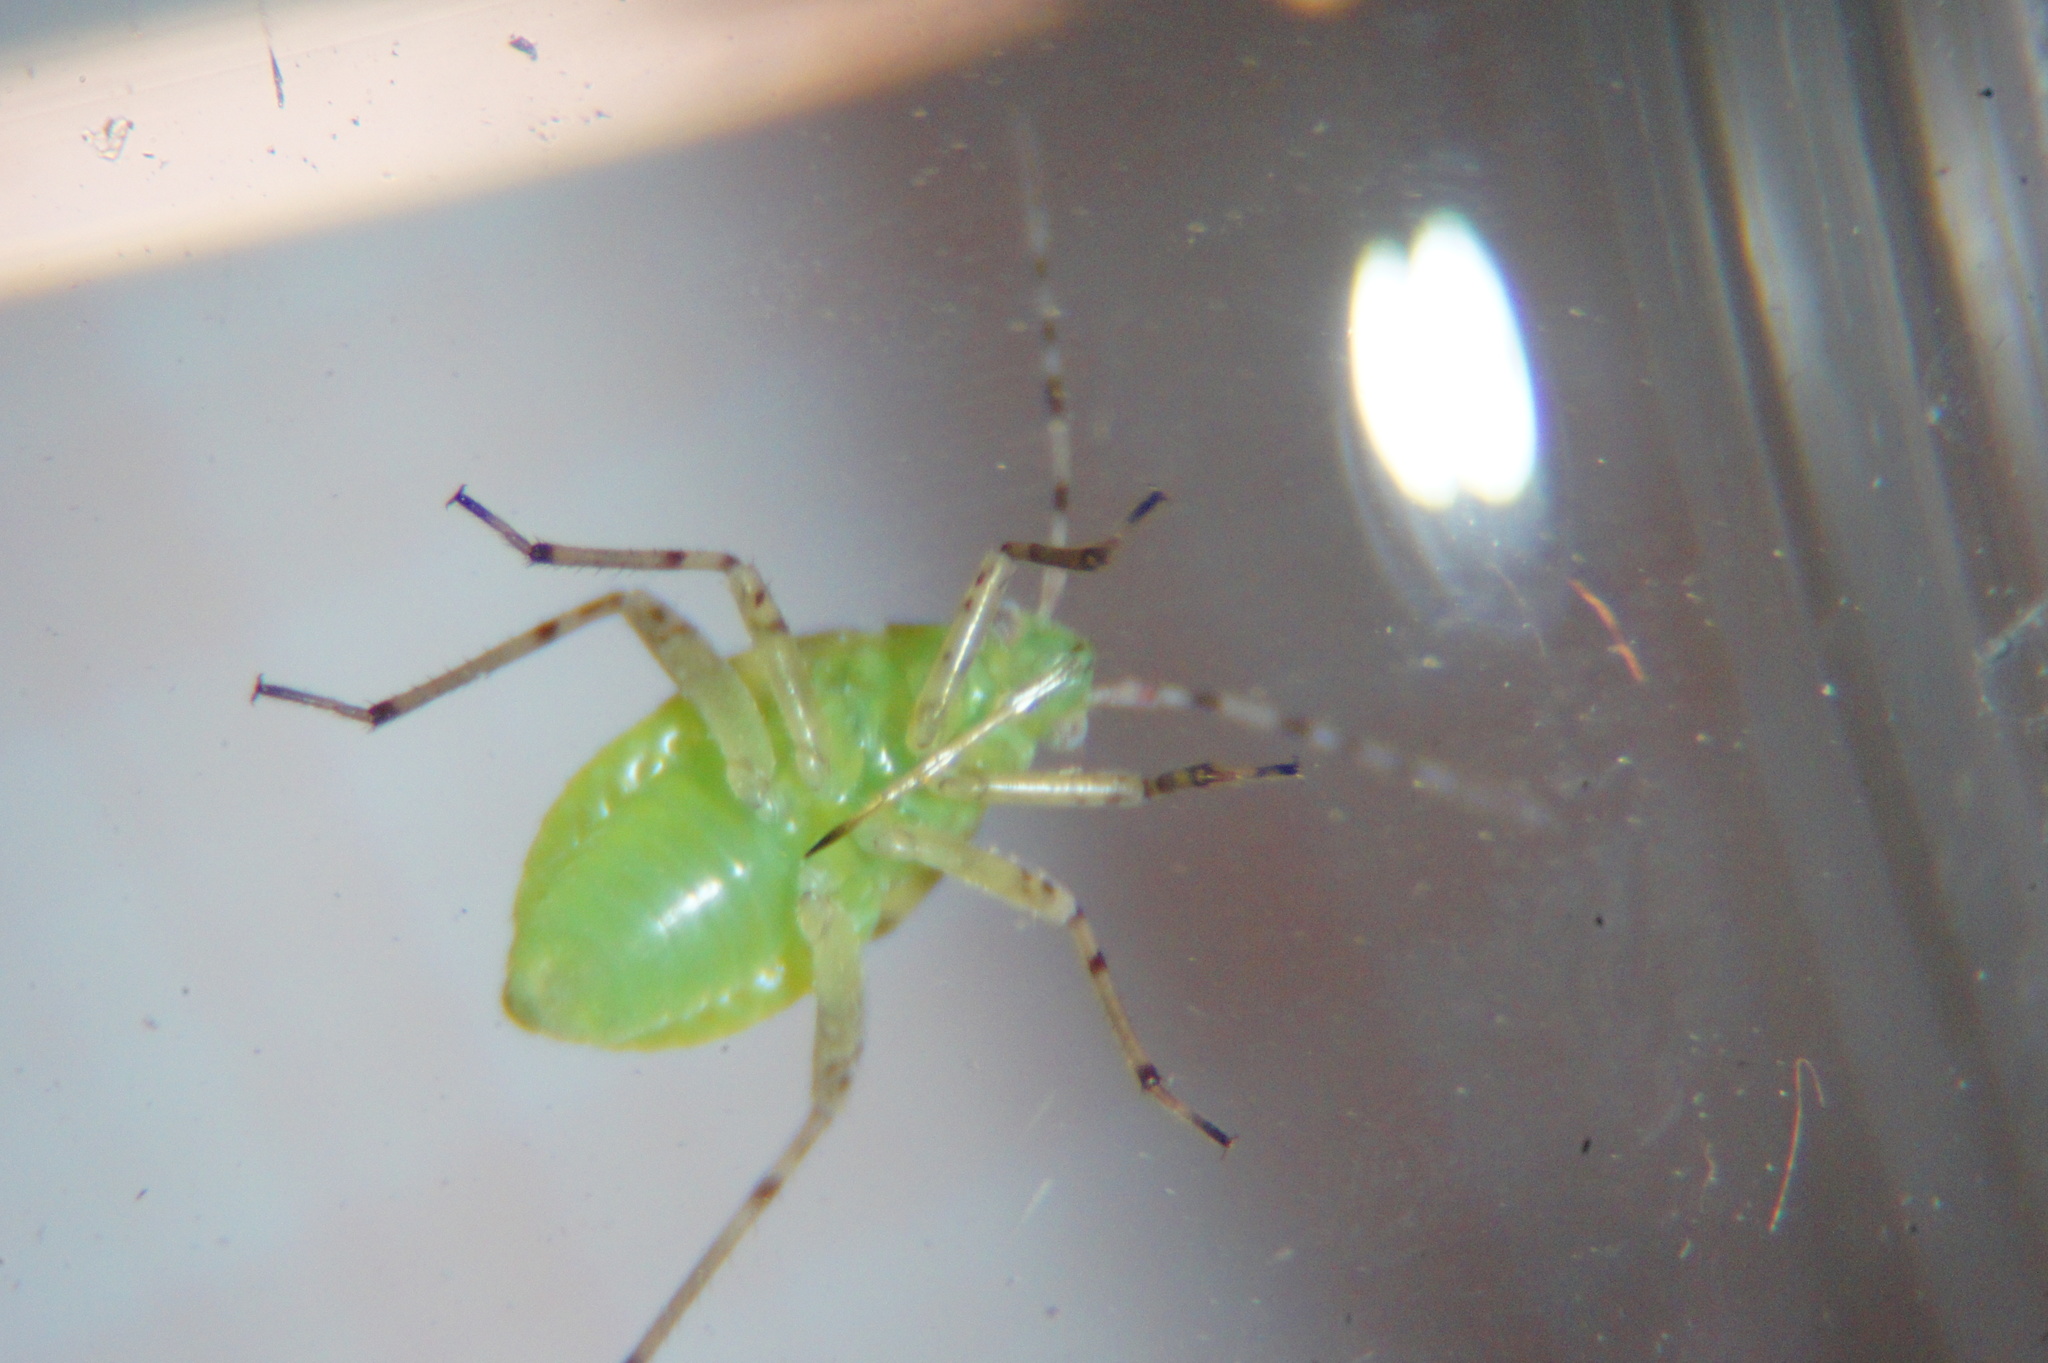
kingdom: Animalia
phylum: Arthropoda
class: Insecta
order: Hemiptera
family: Miridae
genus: Liocoris
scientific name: Liocoris tripustulatus
